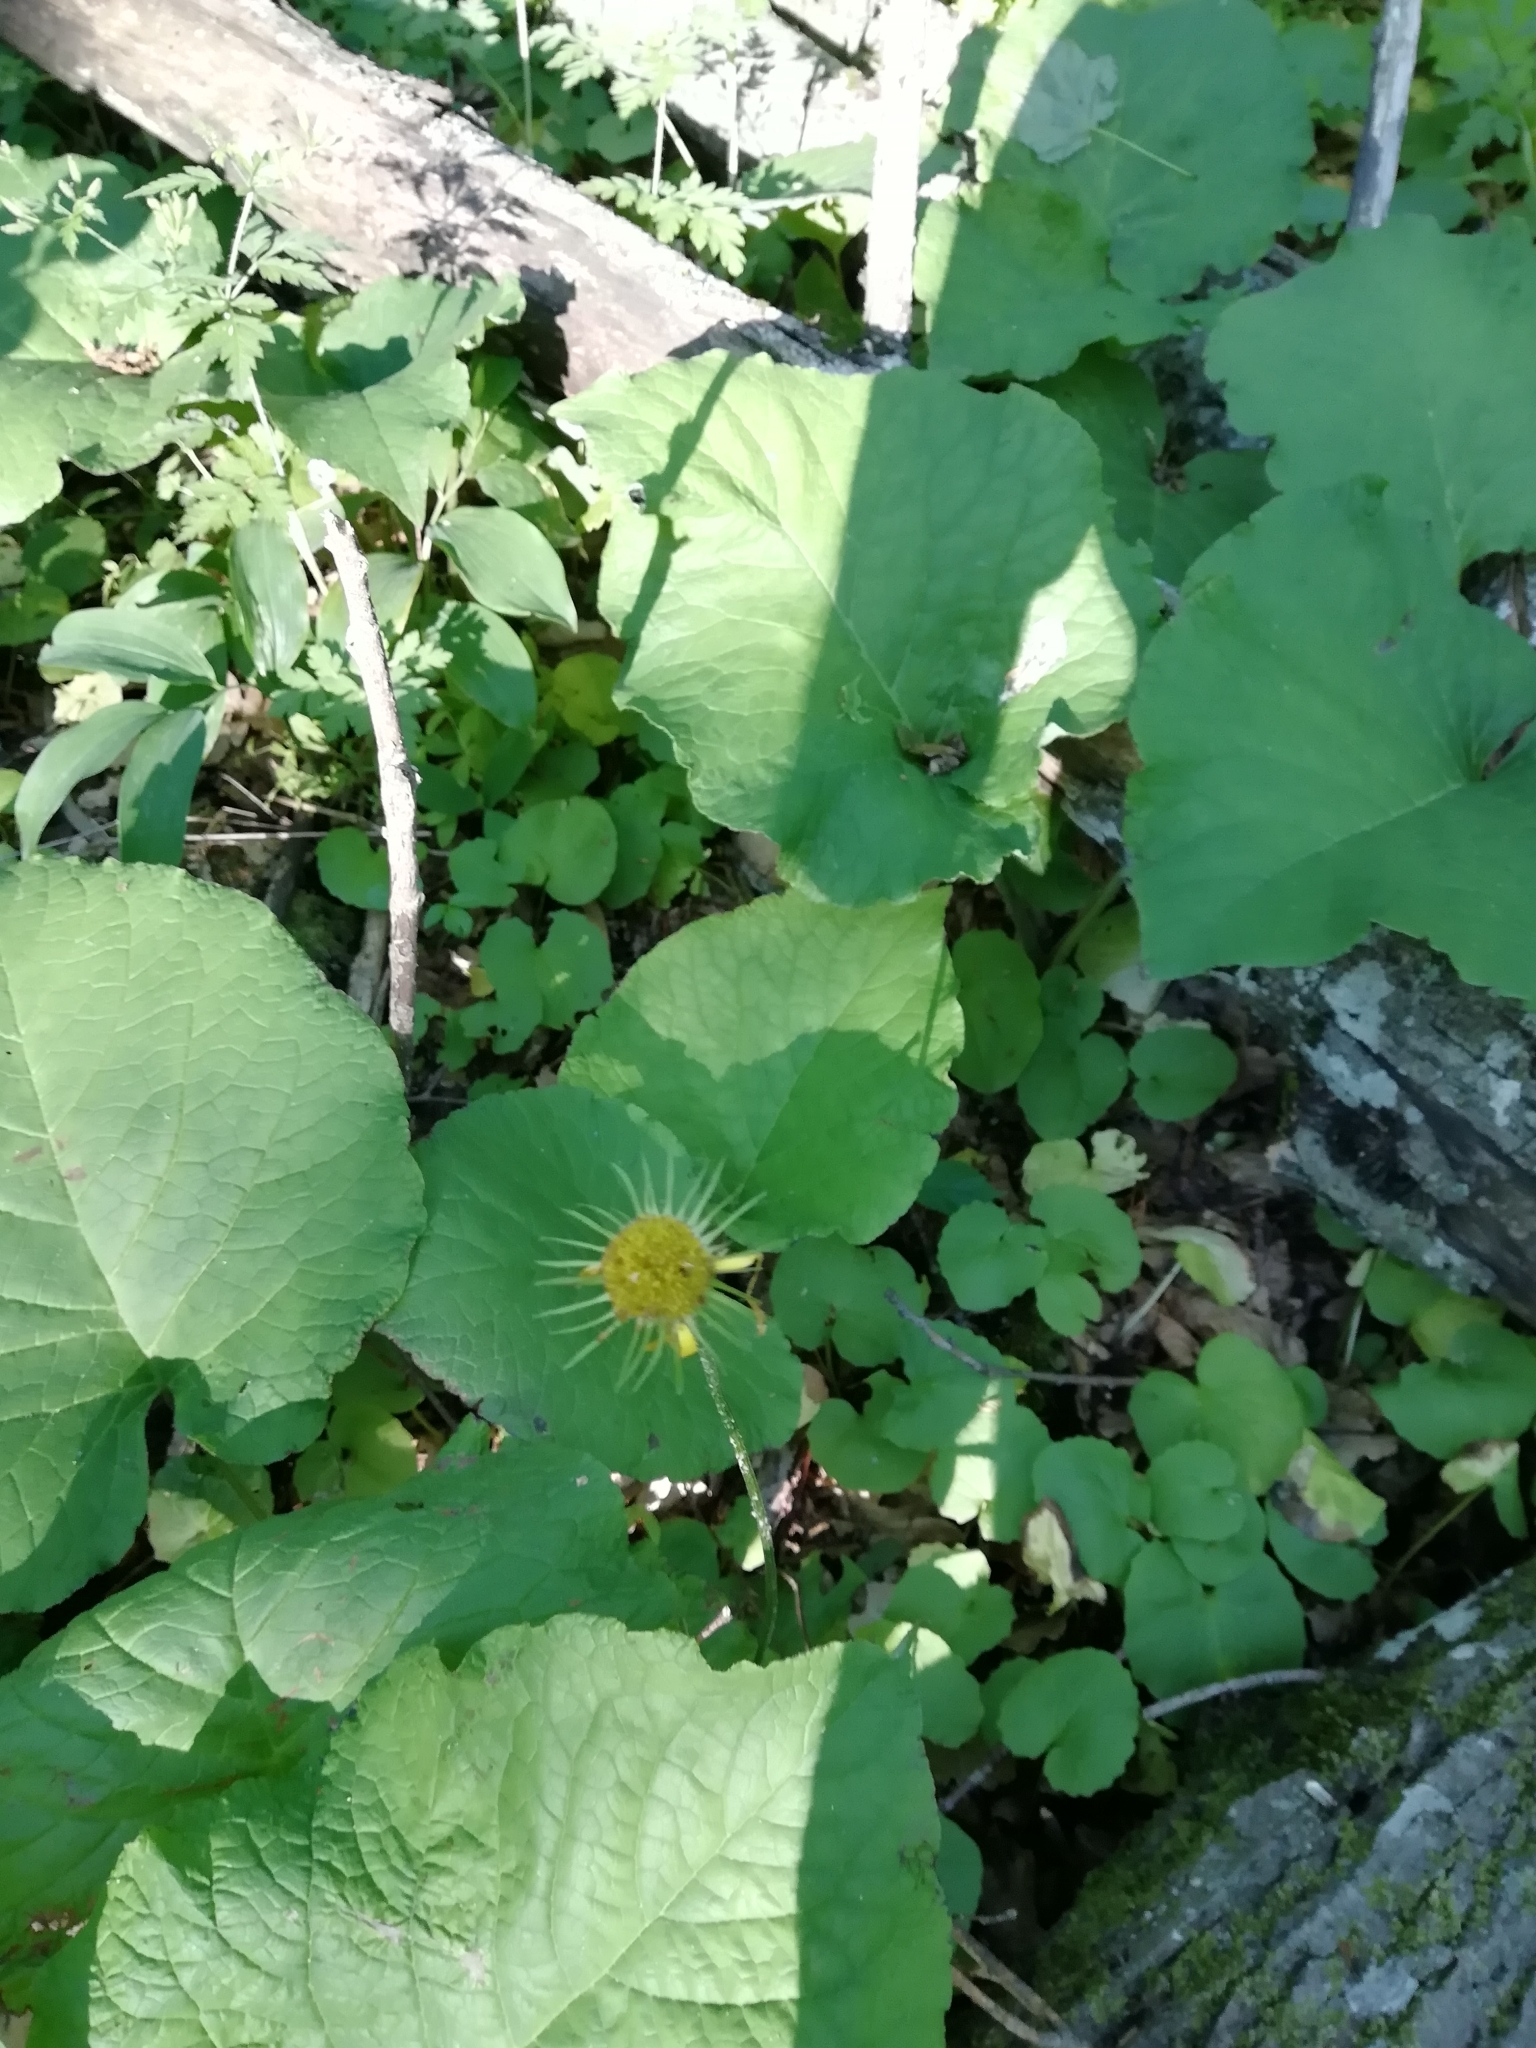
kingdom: Plantae
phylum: Tracheophyta
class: Magnoliopsida
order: Asterales
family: Asteraceae
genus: Doronicum
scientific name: Doronicum
